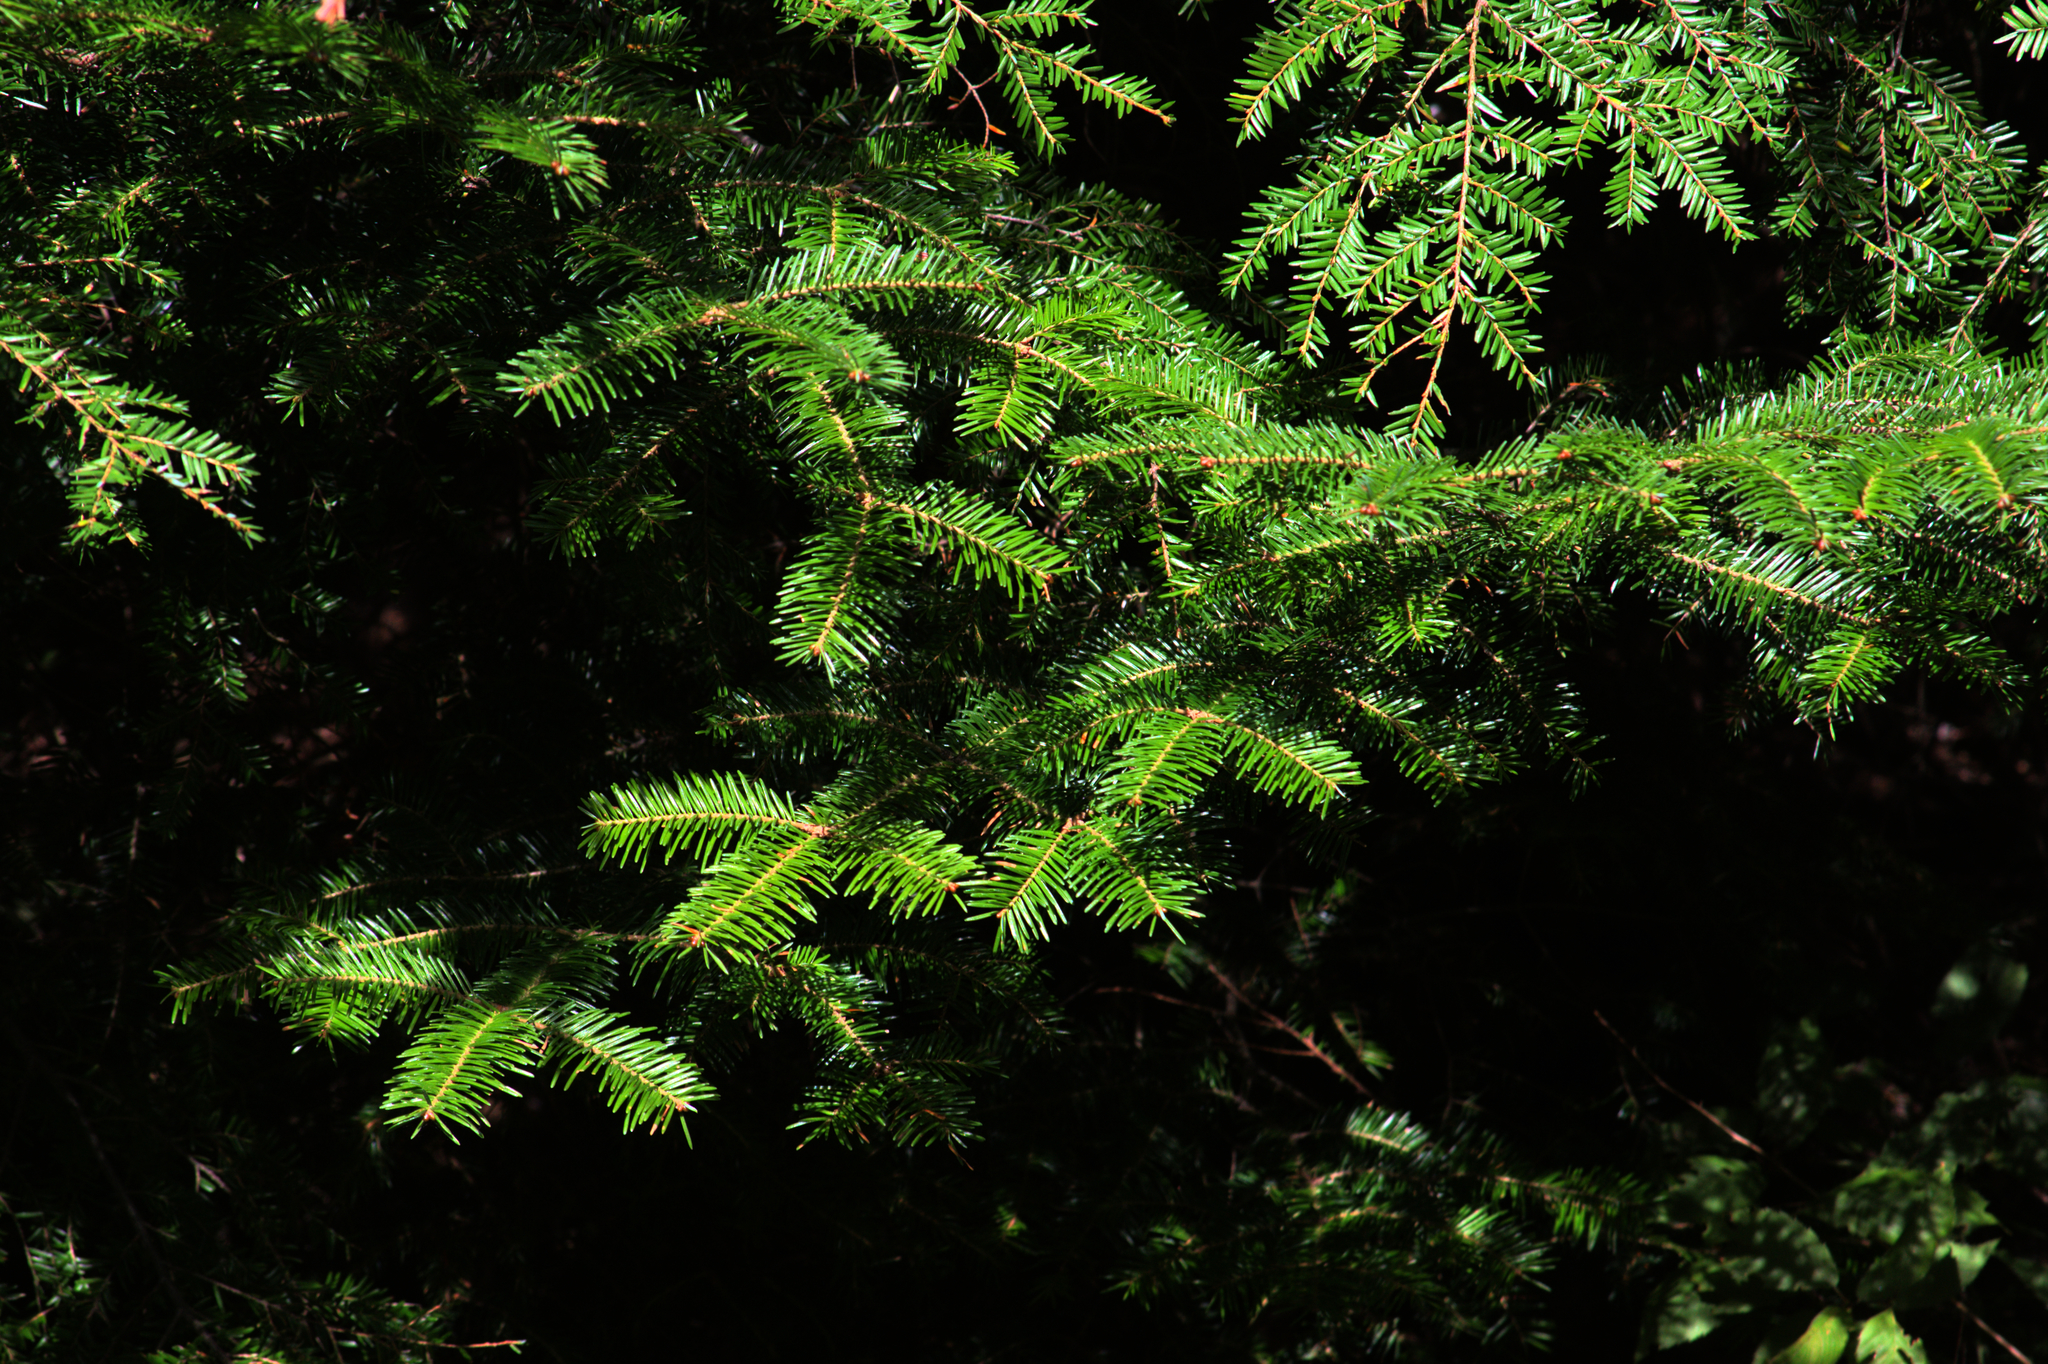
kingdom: Plantae
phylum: Tracheophyta
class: Pinopsida
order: Pinales
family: Pinaceae
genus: Tsuga
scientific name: Tsuga canadensis
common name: Eastern hemlock
